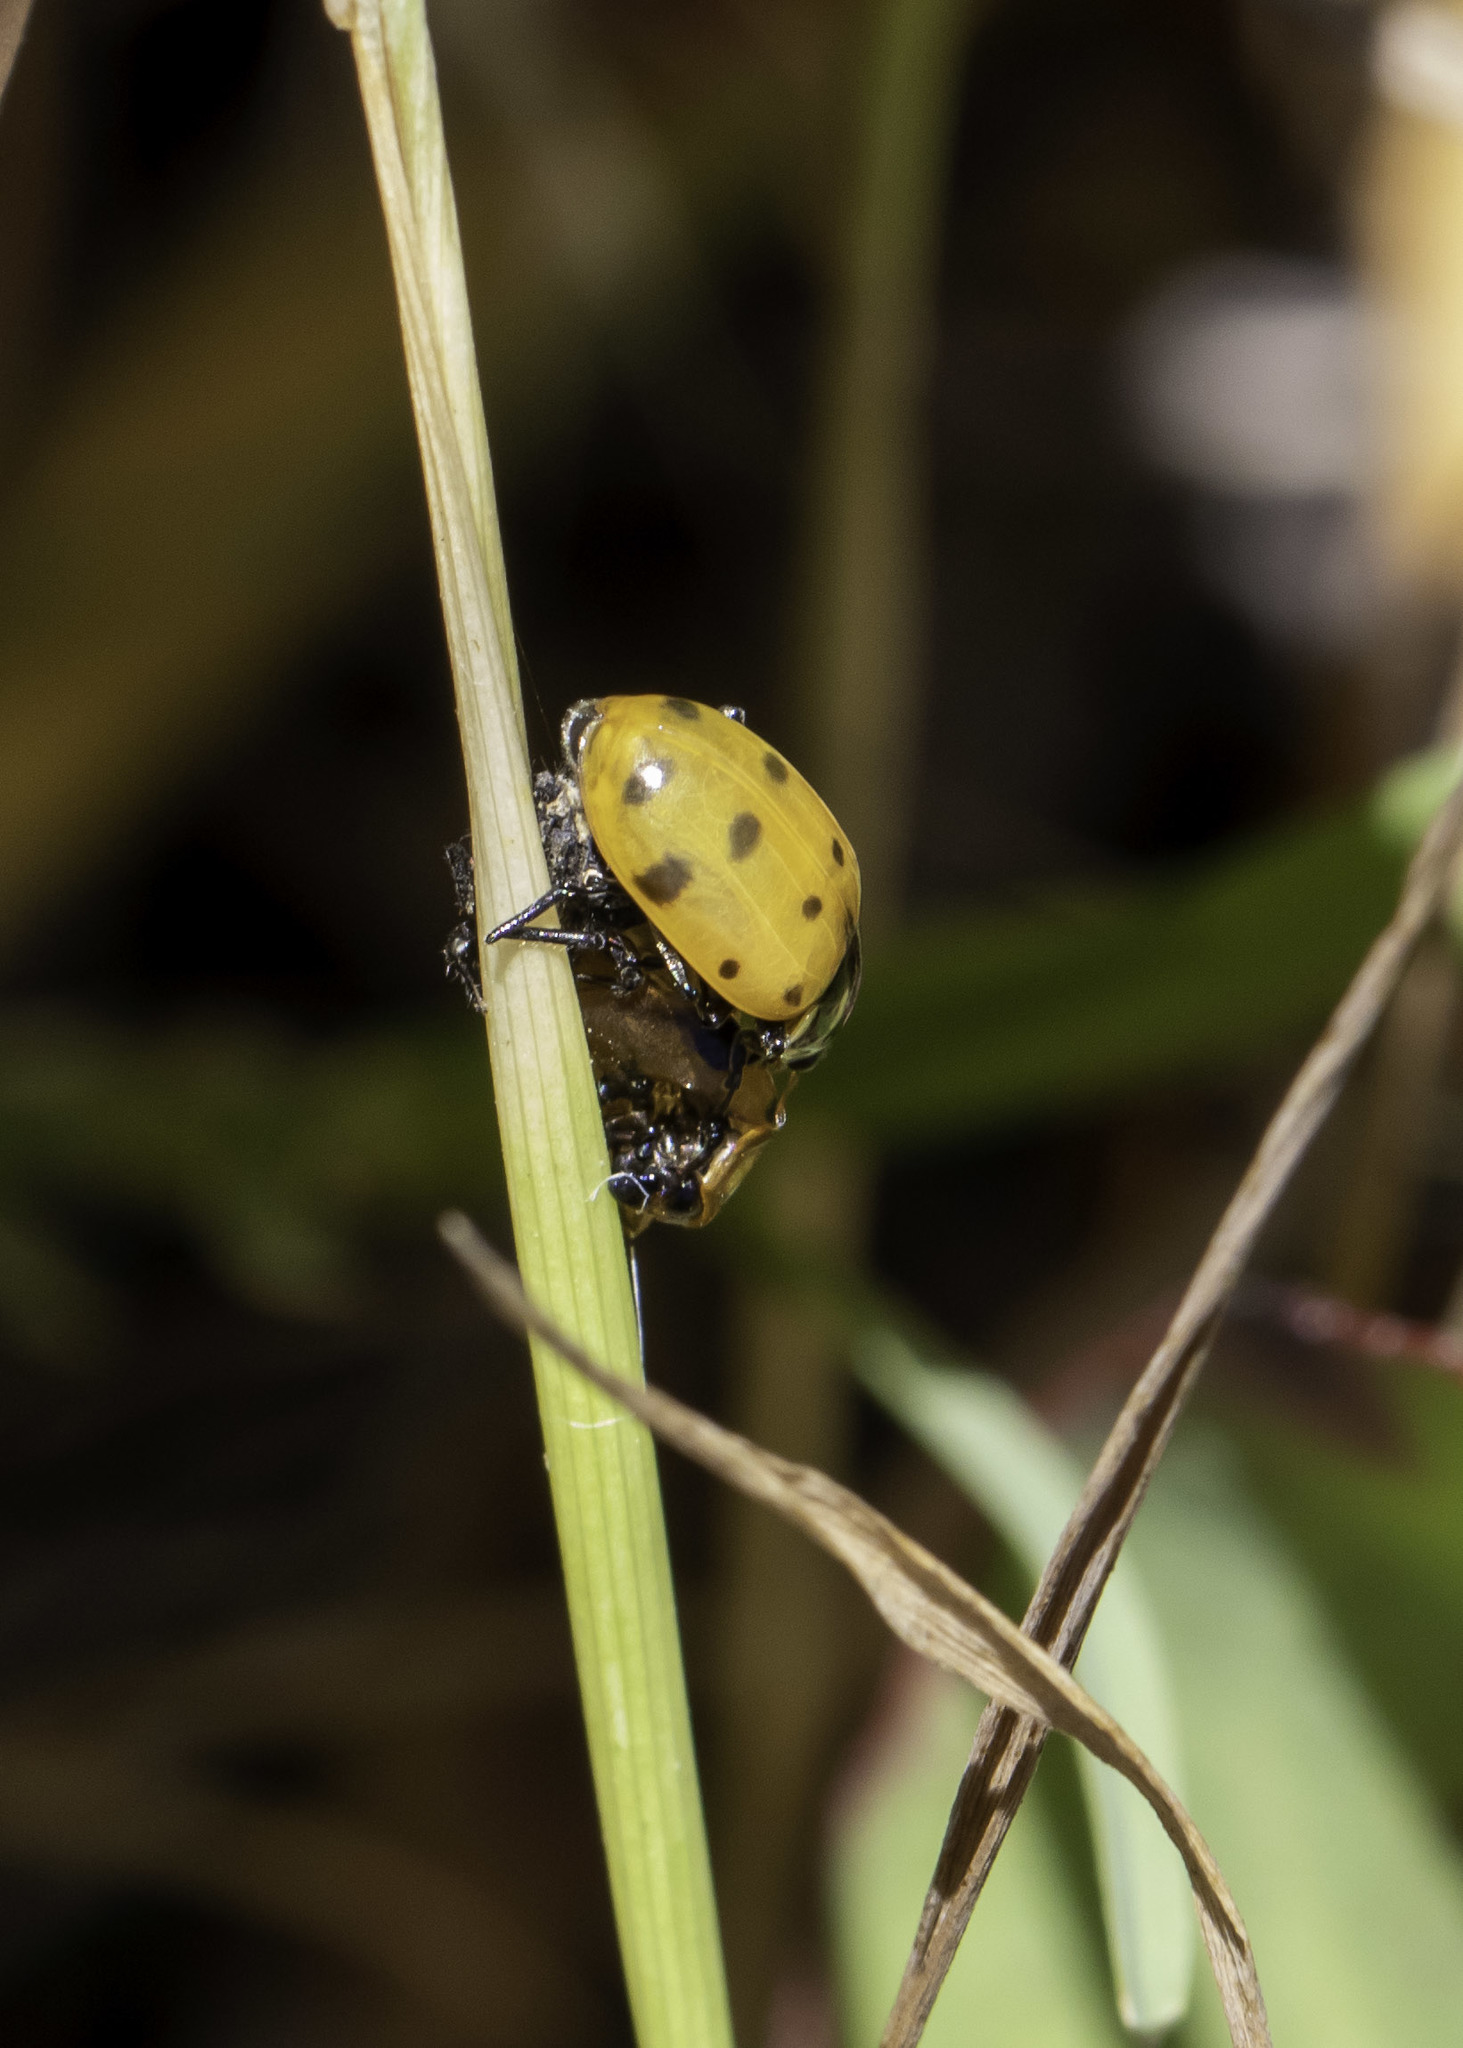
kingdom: Animalia
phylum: Arthropoda
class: Insecta
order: Coleoptera
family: Coccinellidae
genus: Hippodamia
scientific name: Hippodamia convergens
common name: Convergent lady beetle
